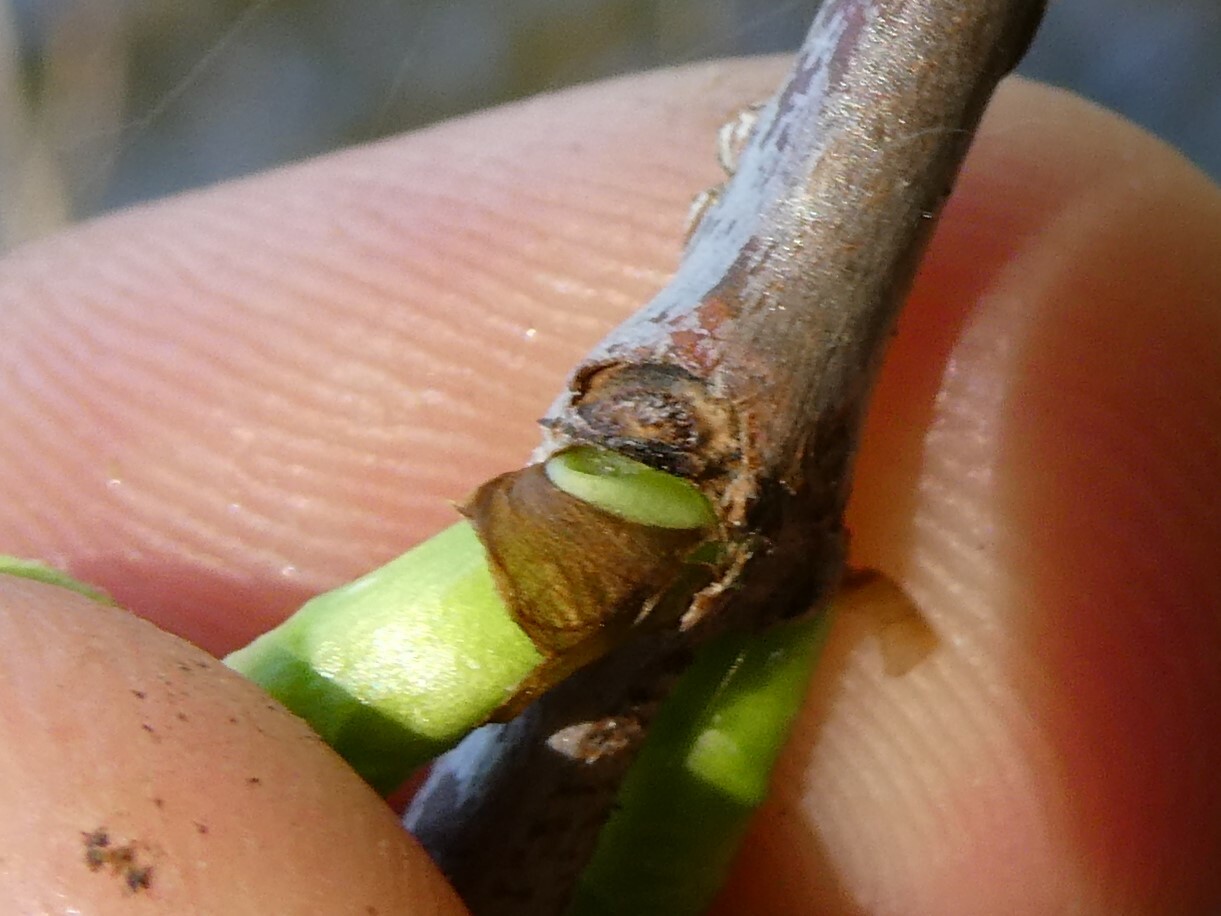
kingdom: Plantae
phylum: Tracheophyta
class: Magnoliopsida
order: Gentianales
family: Rubiaceae
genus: Cephalanthus
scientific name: Cephalanthus occidentalis
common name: Button-willow
